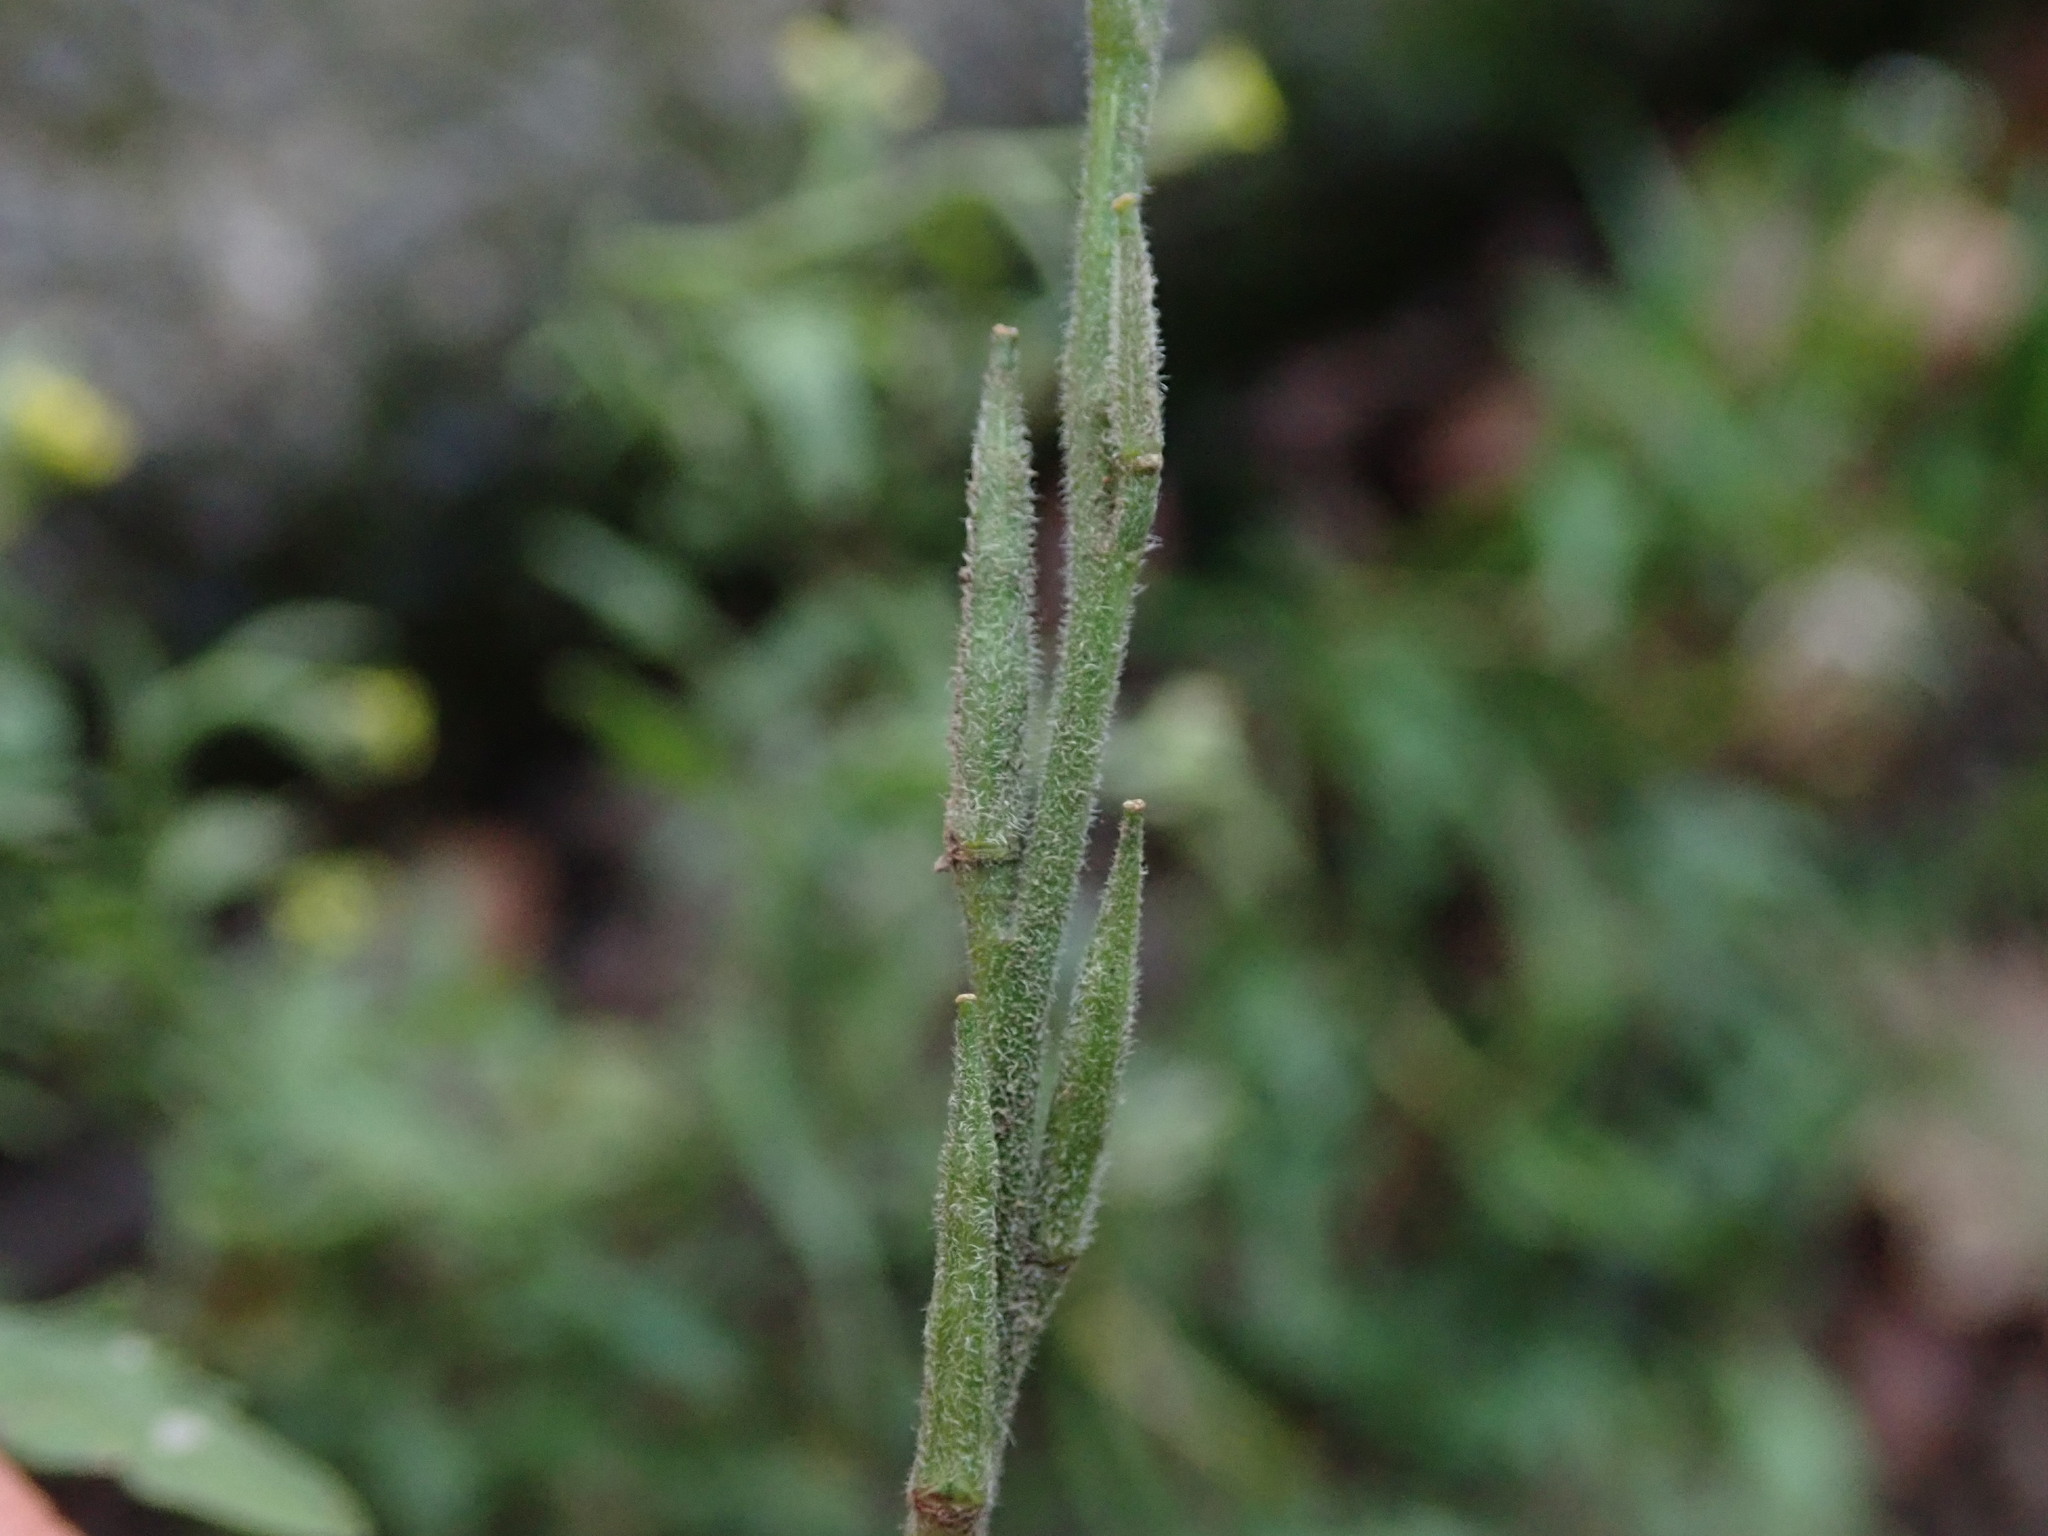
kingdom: Plantae
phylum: Tracheophyta
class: Magnoliopsida
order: Brassicales
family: Brassicaceae
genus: Sisymbrium
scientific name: Sisymbrium officinale
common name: Hedge mustard
